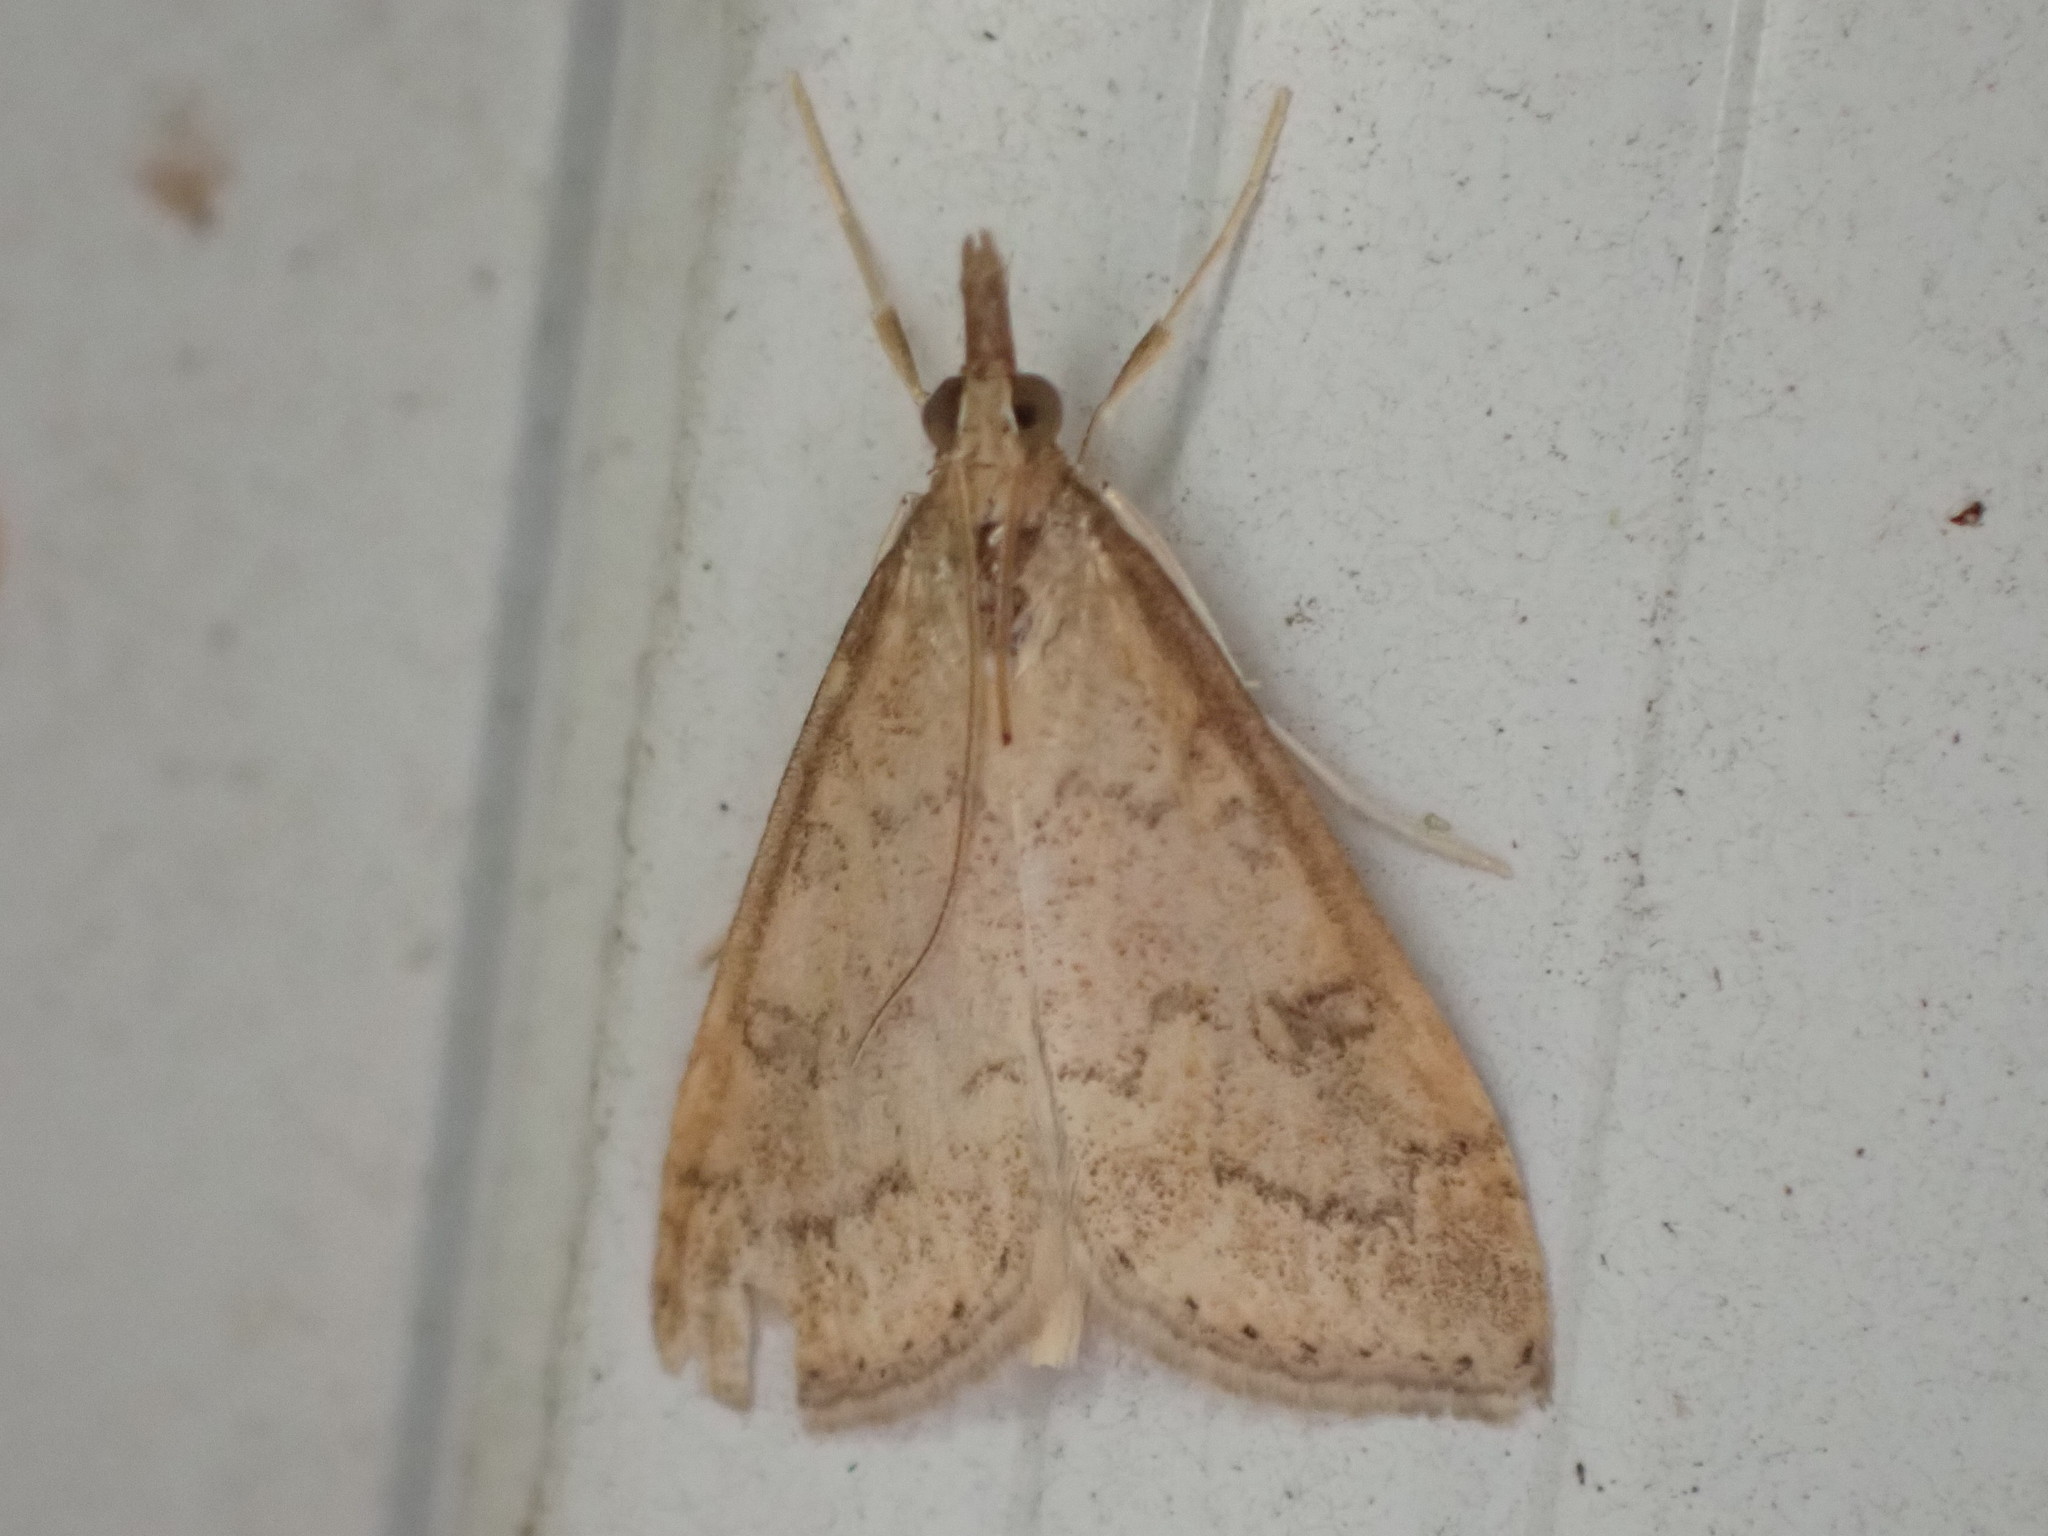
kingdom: Animalia
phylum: Arthropoda
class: Insecta
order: Lepidoptera
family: Crambidae
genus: Udea
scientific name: Udea rubigalis
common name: Celery leaftier moth
